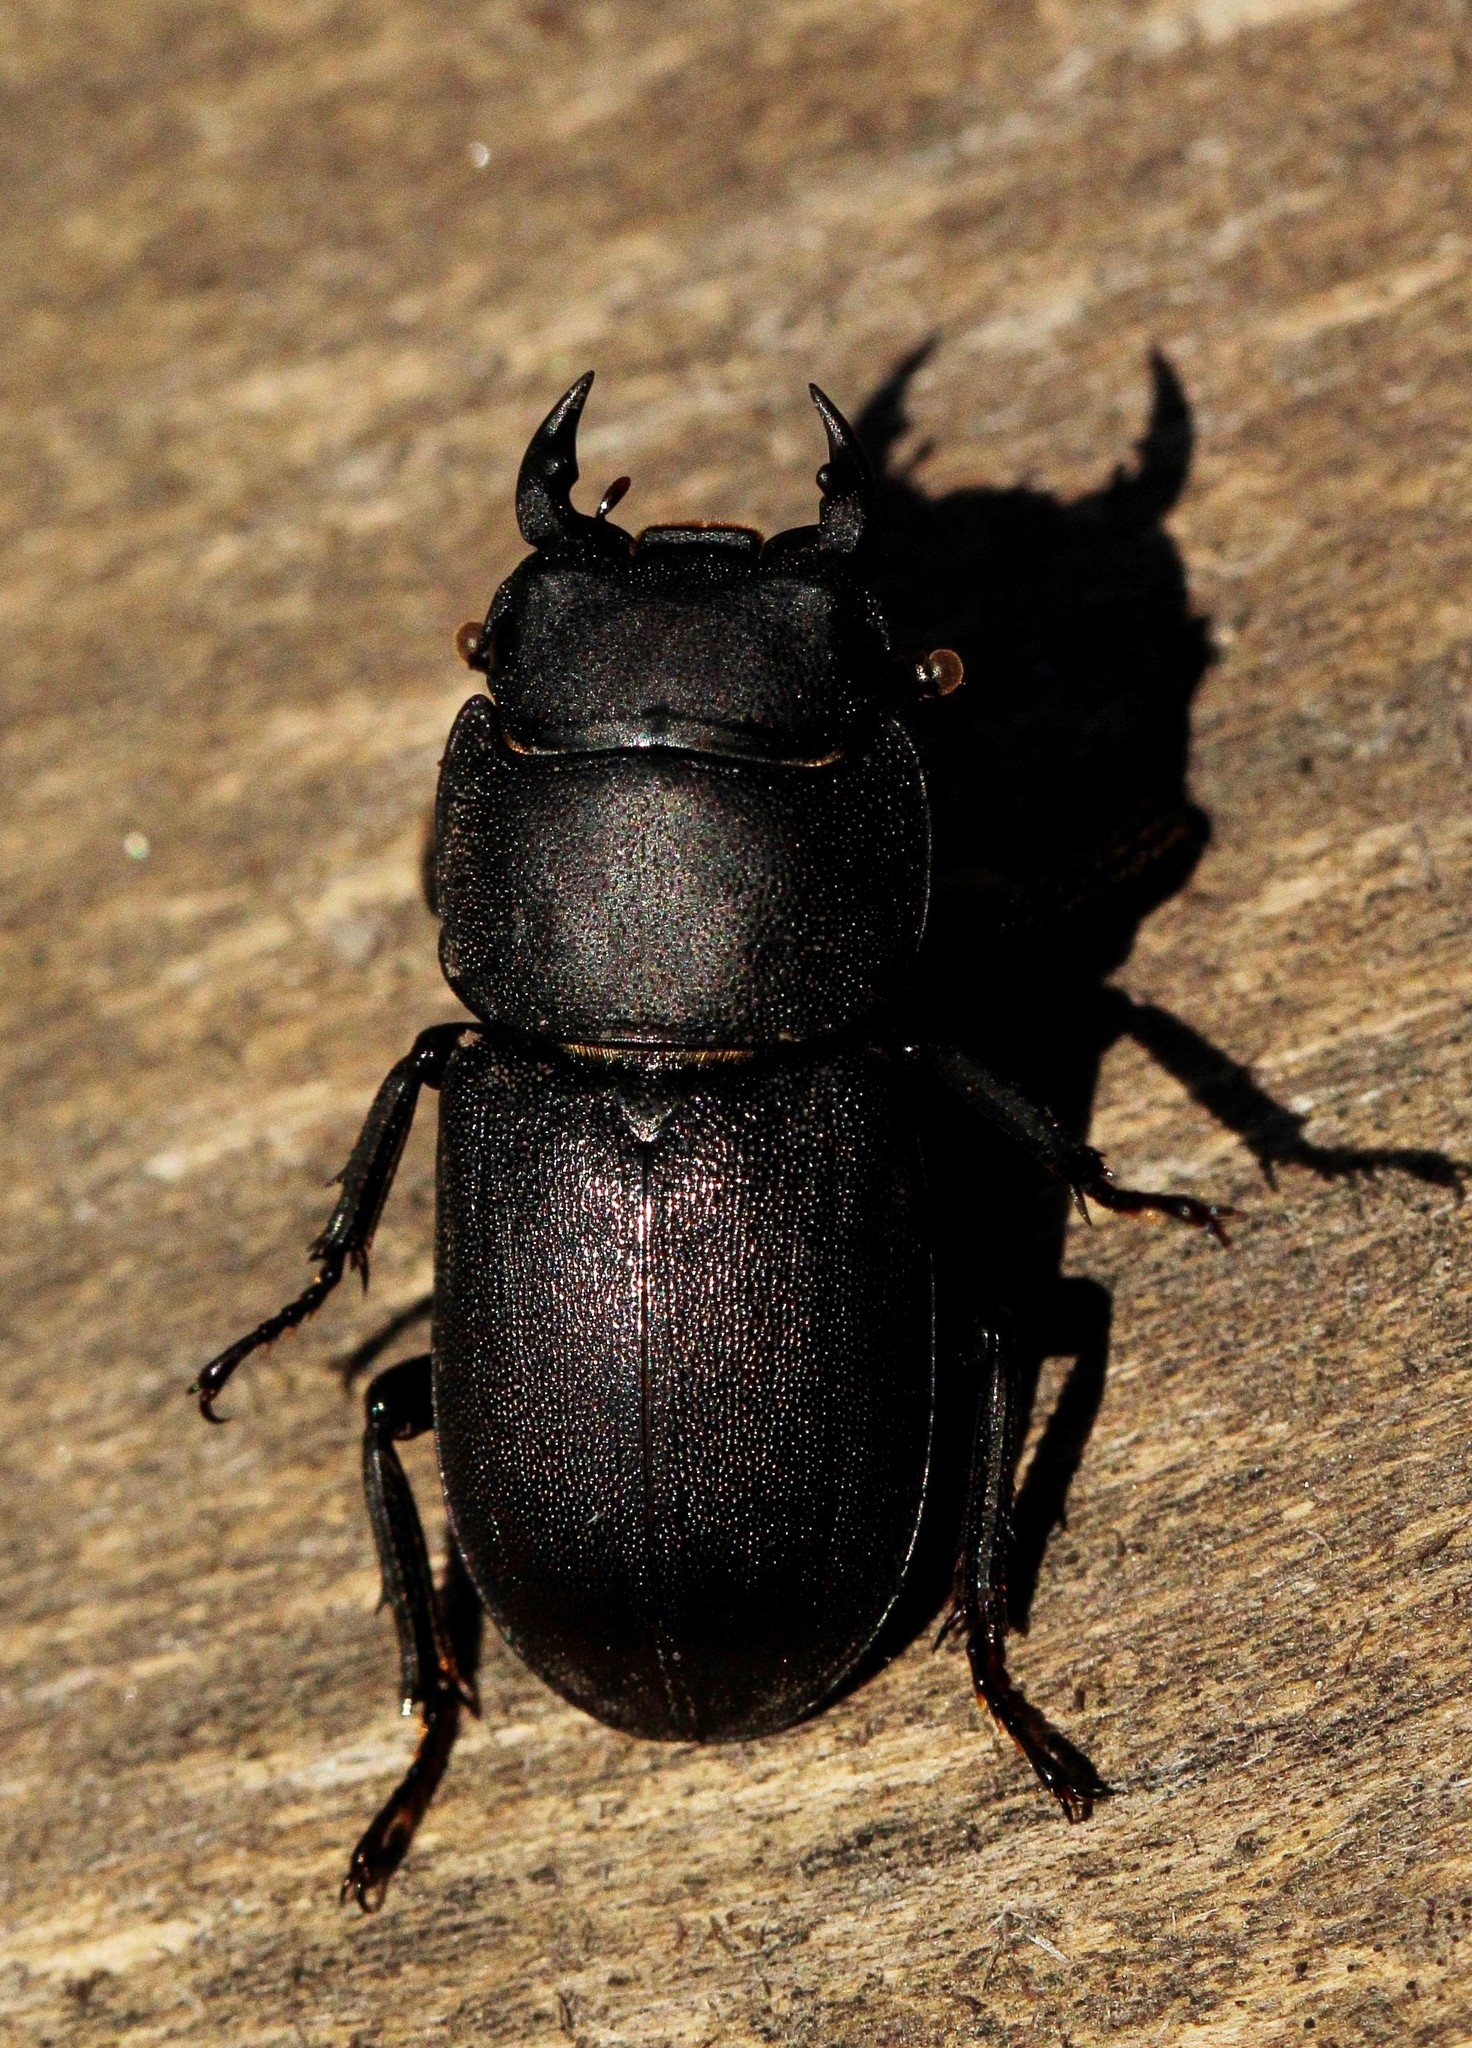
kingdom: Animalia
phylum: Arthropoda
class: Insecta
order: Coleoptera
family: Lucanidae
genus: Dorcus
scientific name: Dorcus parallelipipedus
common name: Lesser stag beetle
